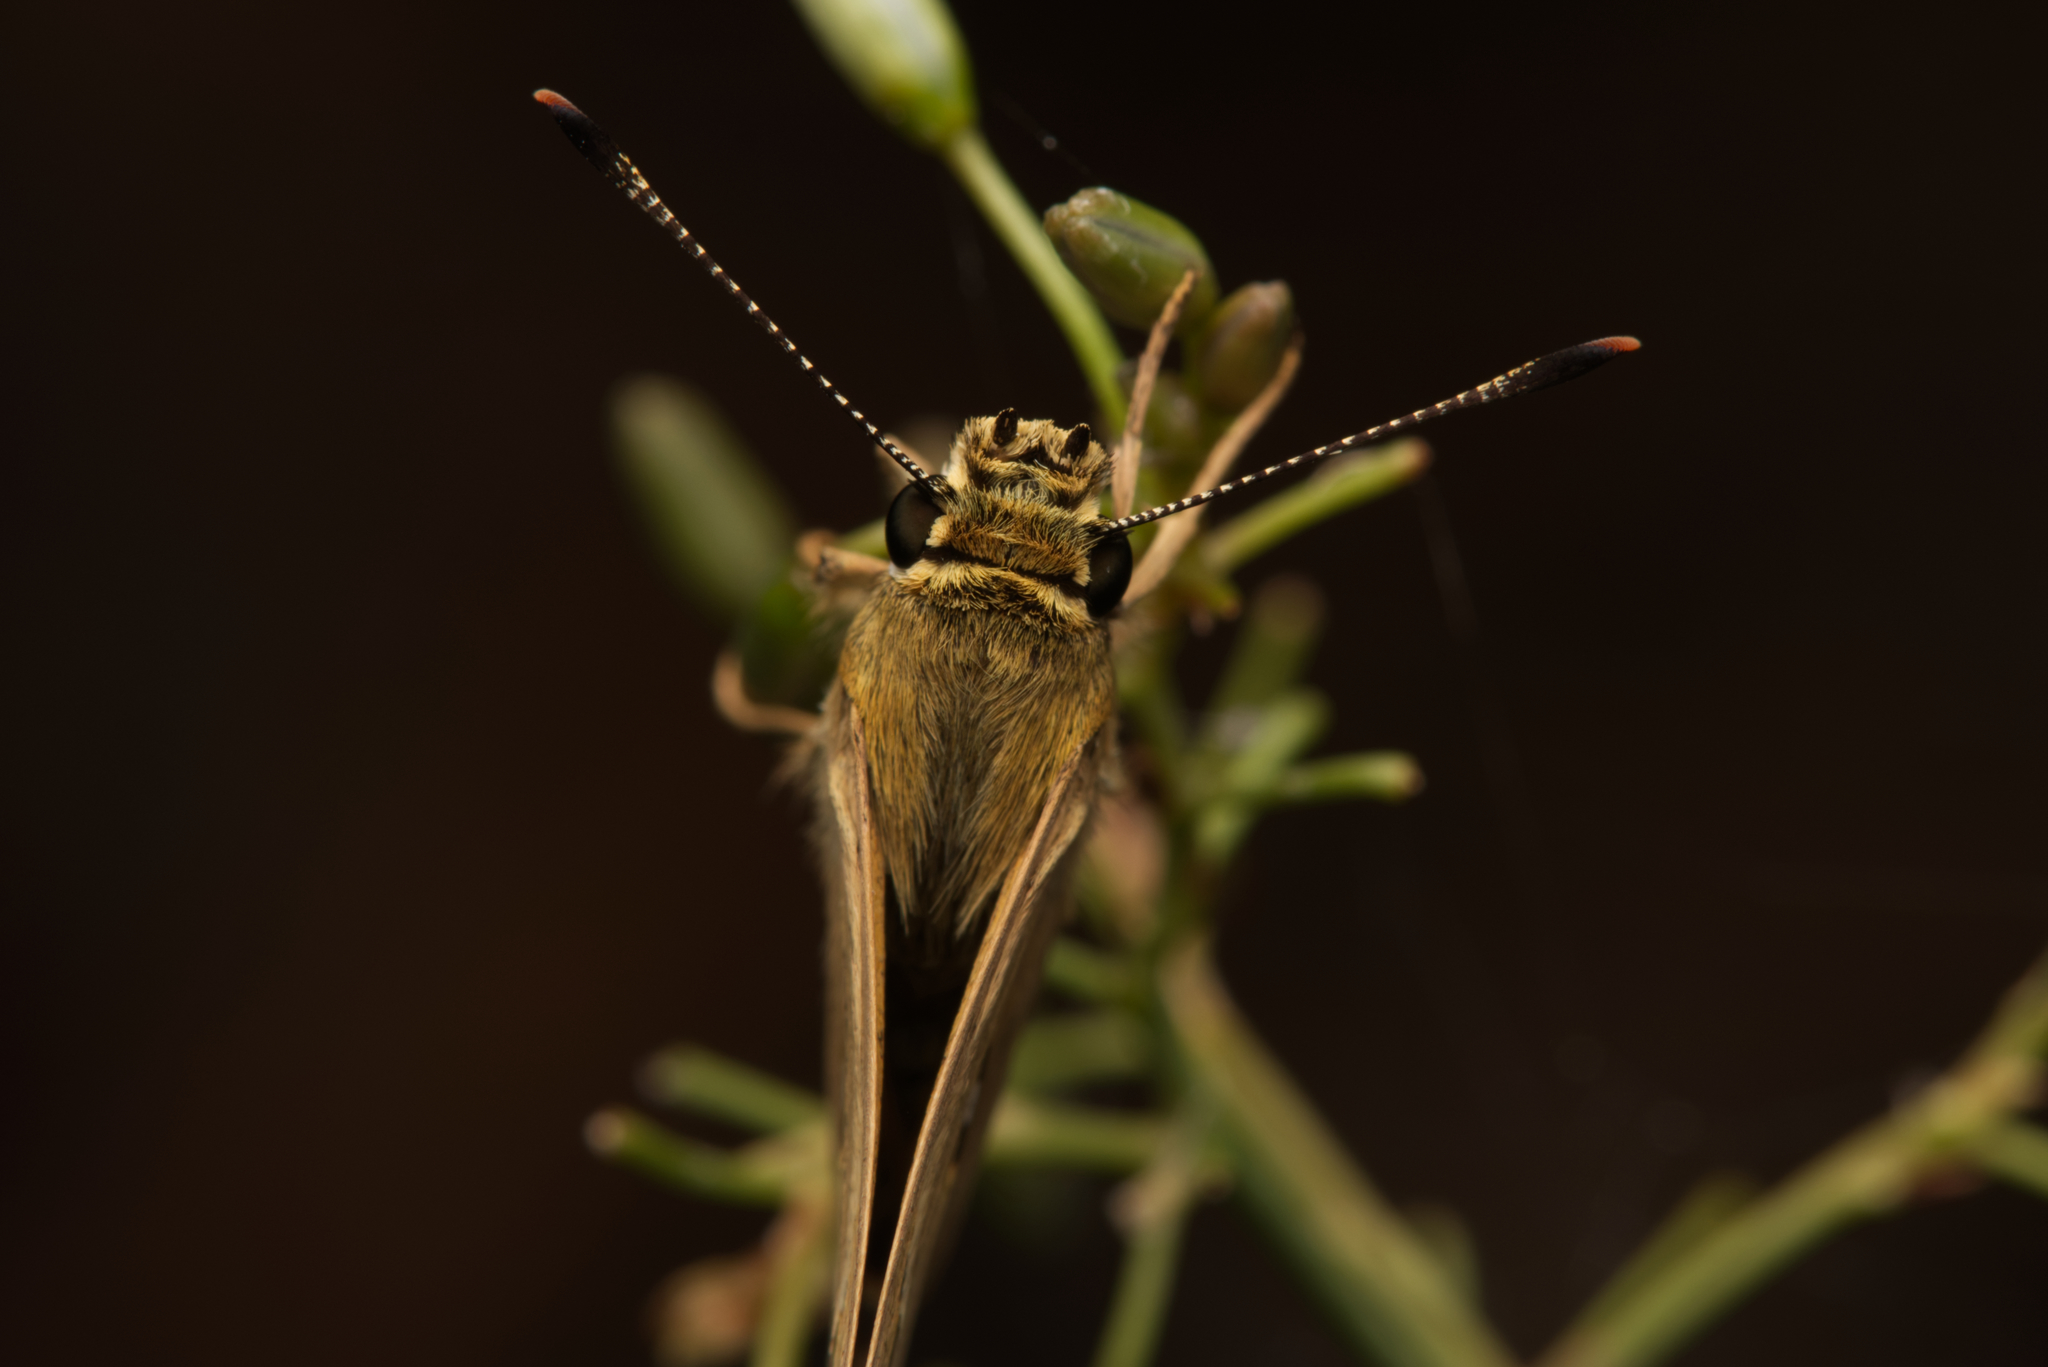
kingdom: Animalia
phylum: Arthropoda
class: Insecta
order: Lepidoptera
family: Hesperiidae
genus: Trapezites
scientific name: Trapezites petalia
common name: Black-ringed ochre
